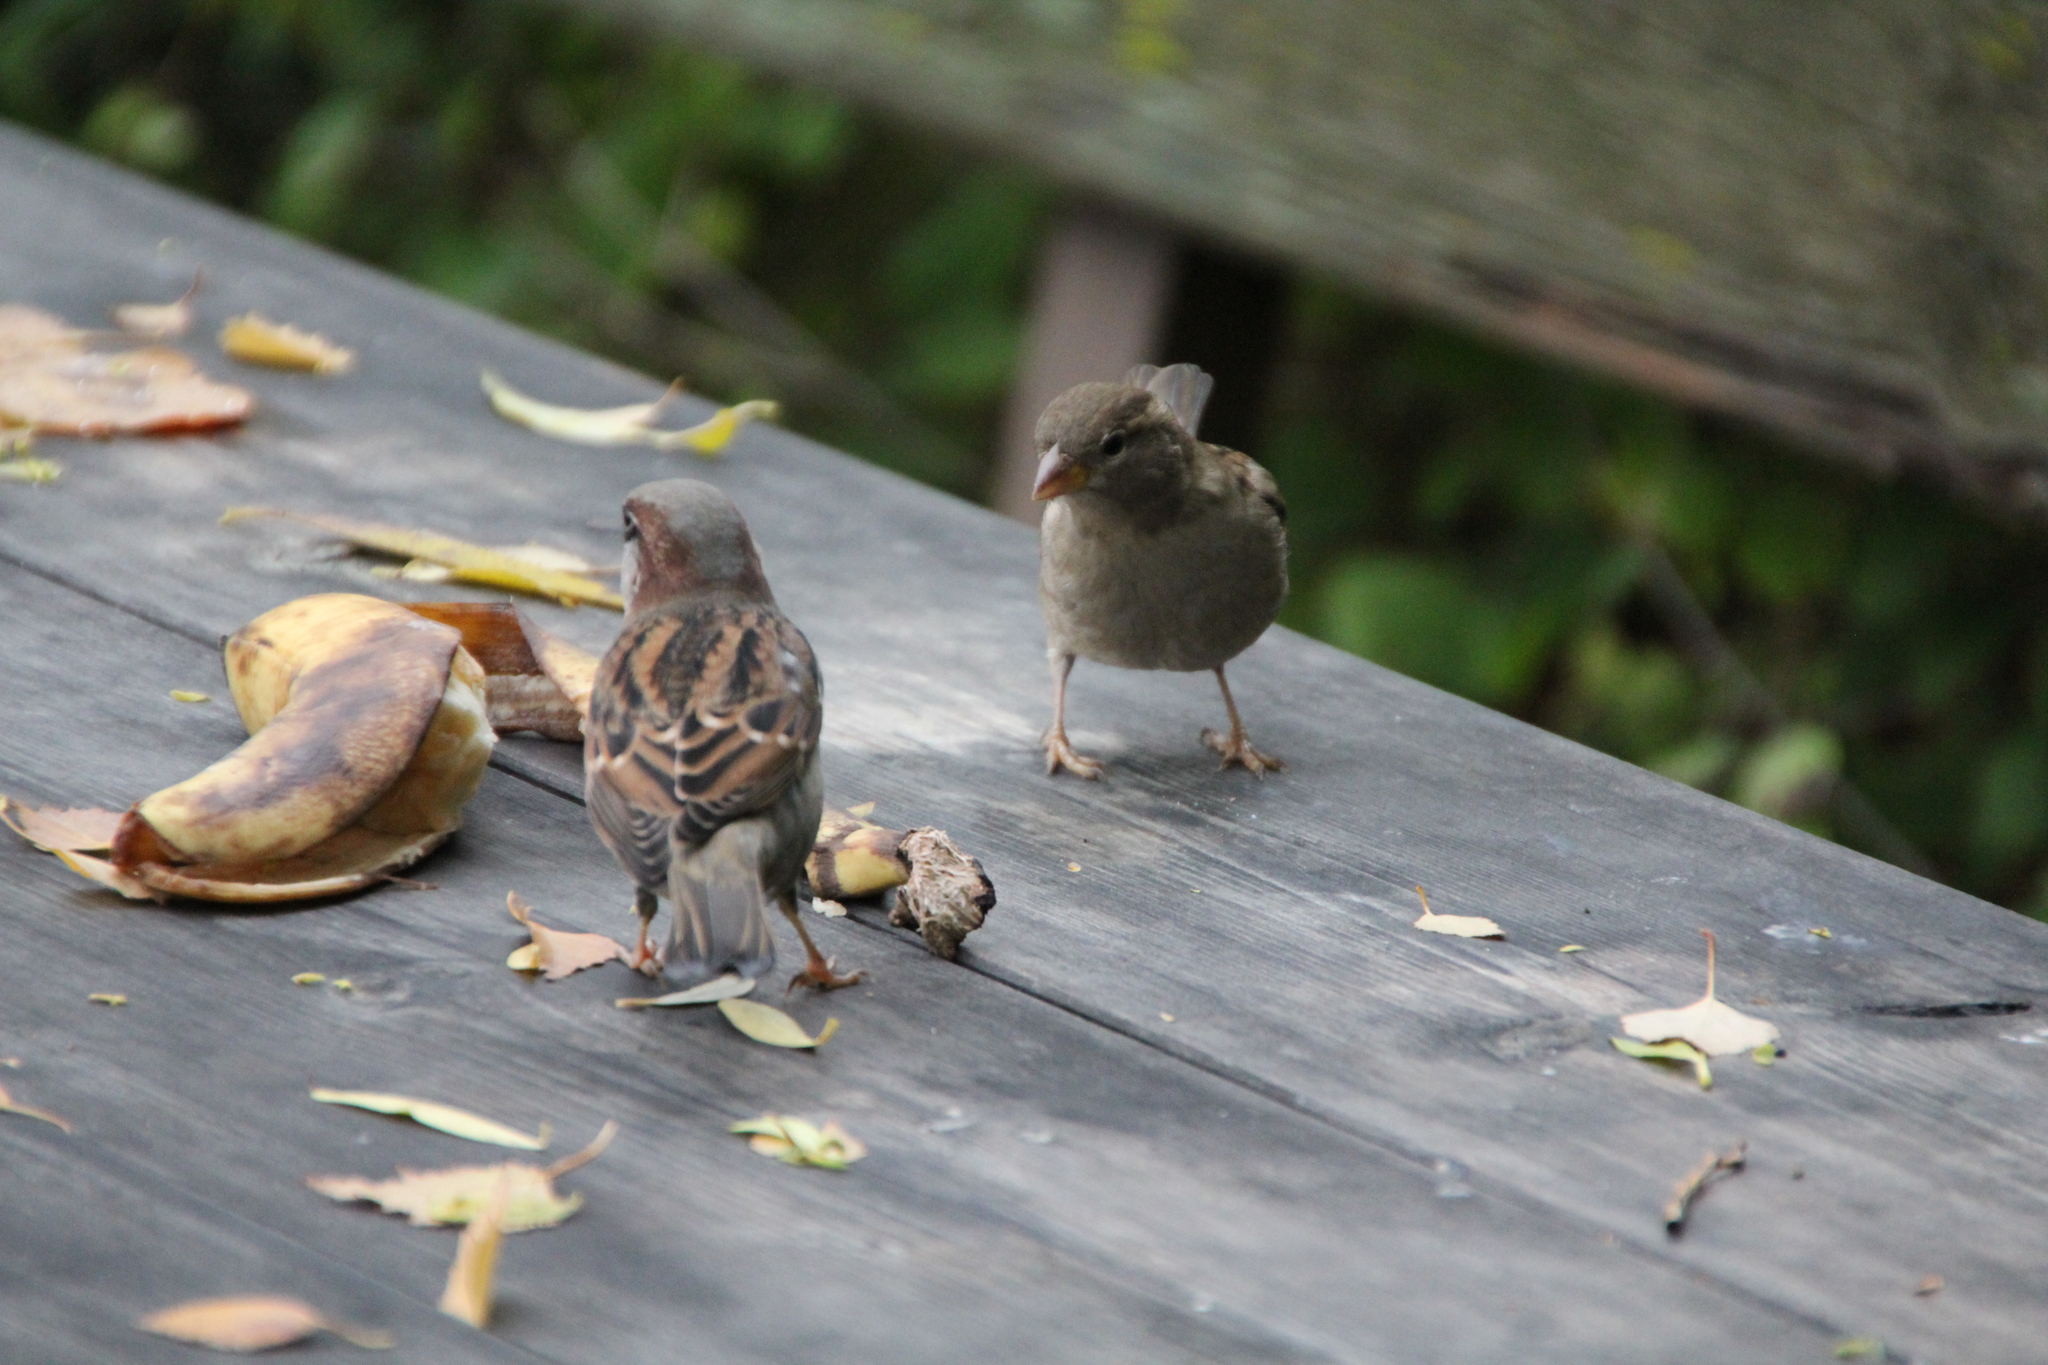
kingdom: Animalia
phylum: Chordata
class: Aves
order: Passeriformes
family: Passeridae
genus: Passer
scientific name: Passer domesticus
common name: House sparrow
